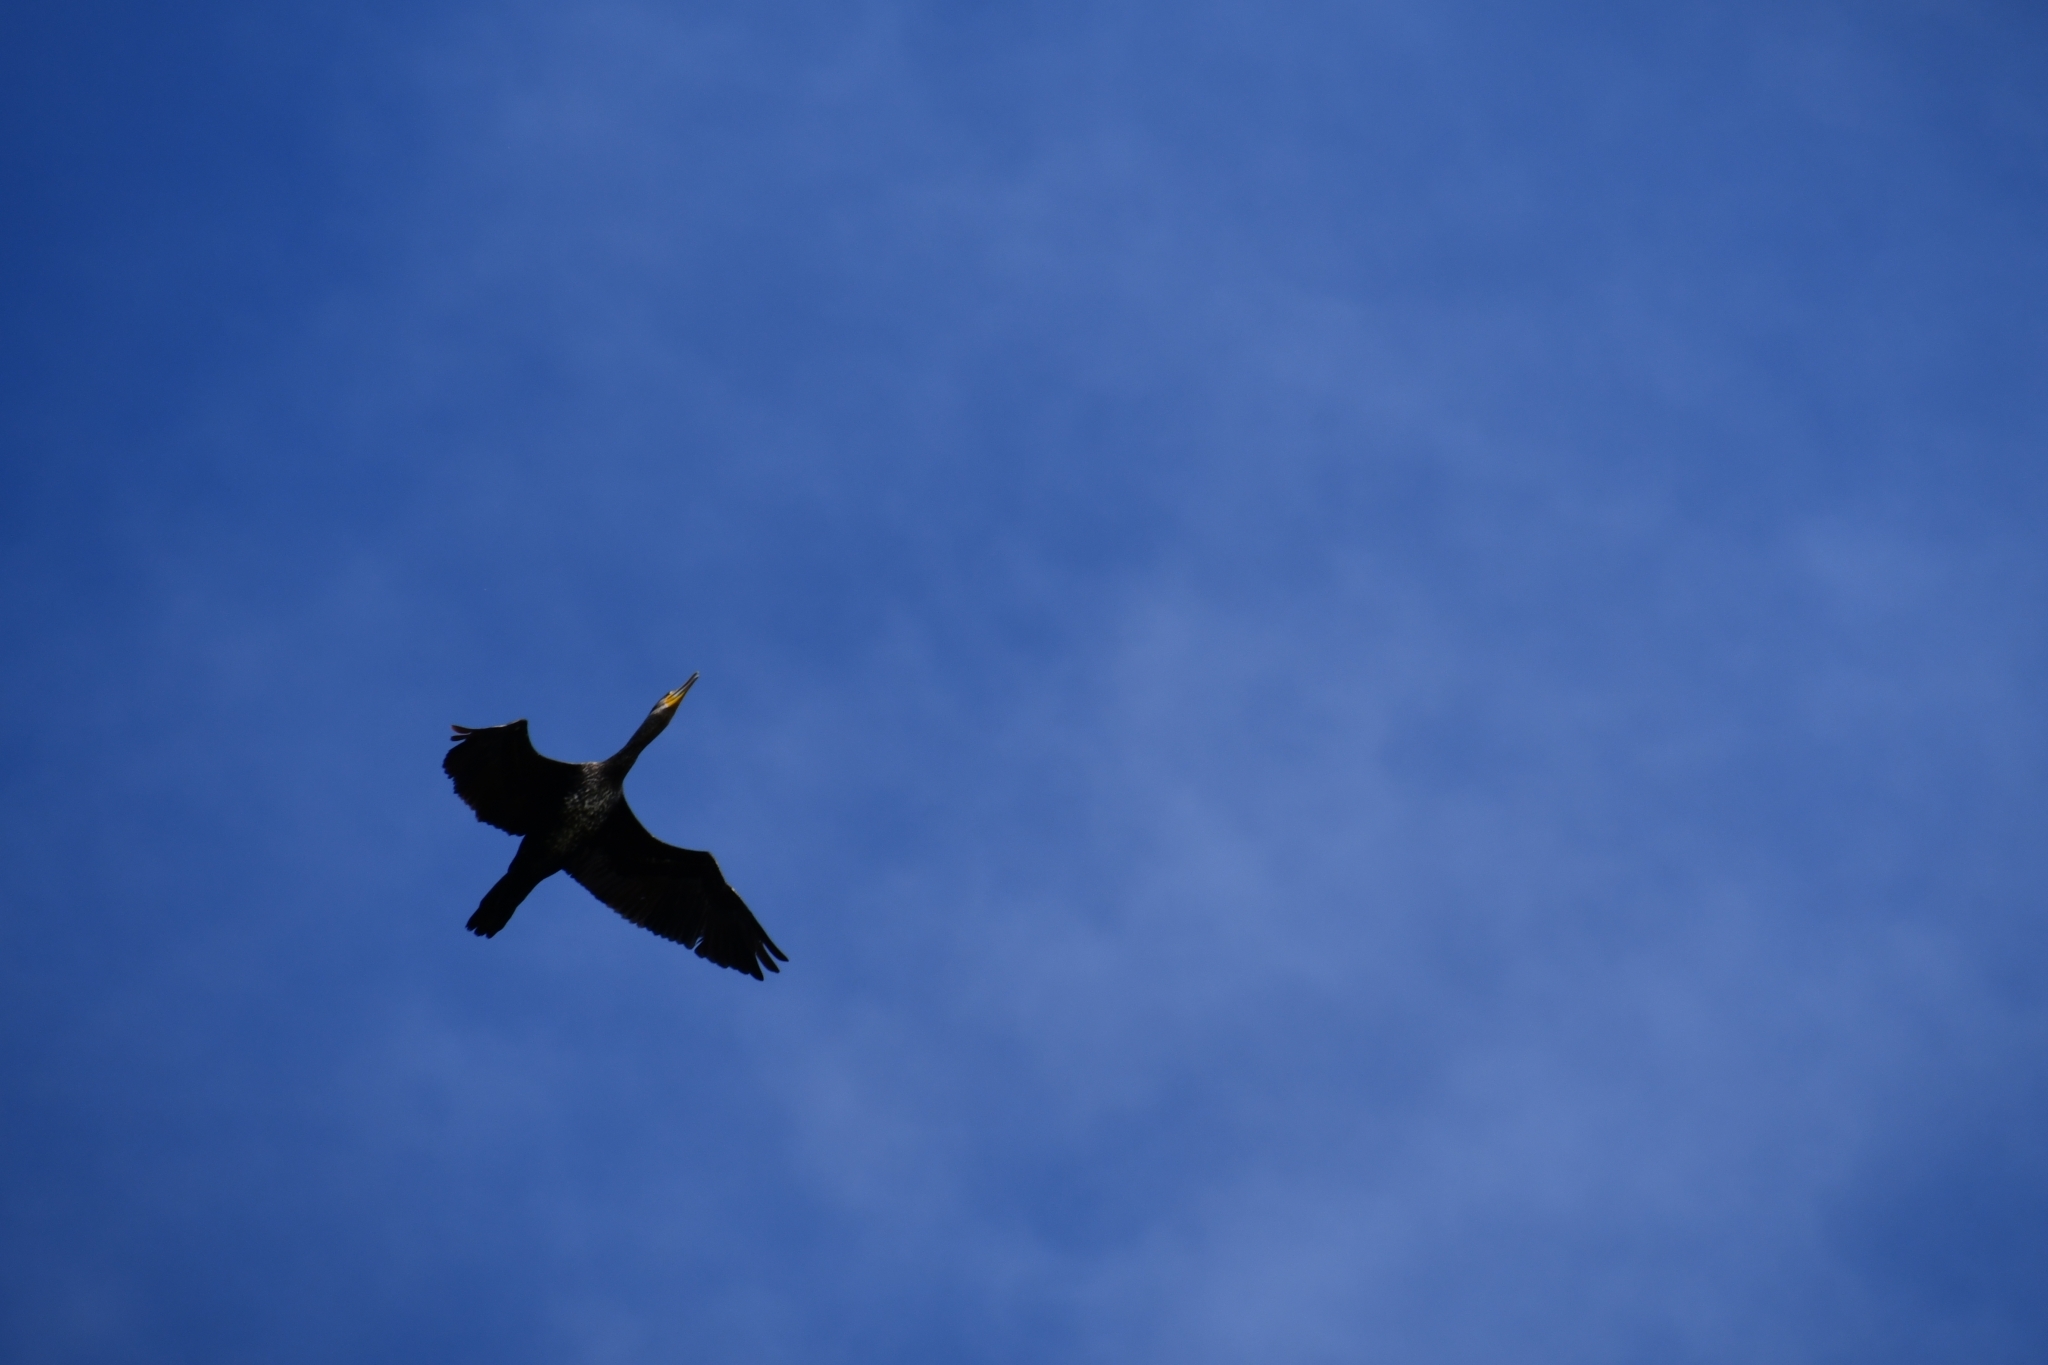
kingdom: Animalia
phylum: Chordata
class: Aves
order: Suliformes
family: Phalacrocoracidae
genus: Phalacrocorax
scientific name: Phalacrocorax carbo
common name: Great cormorant
